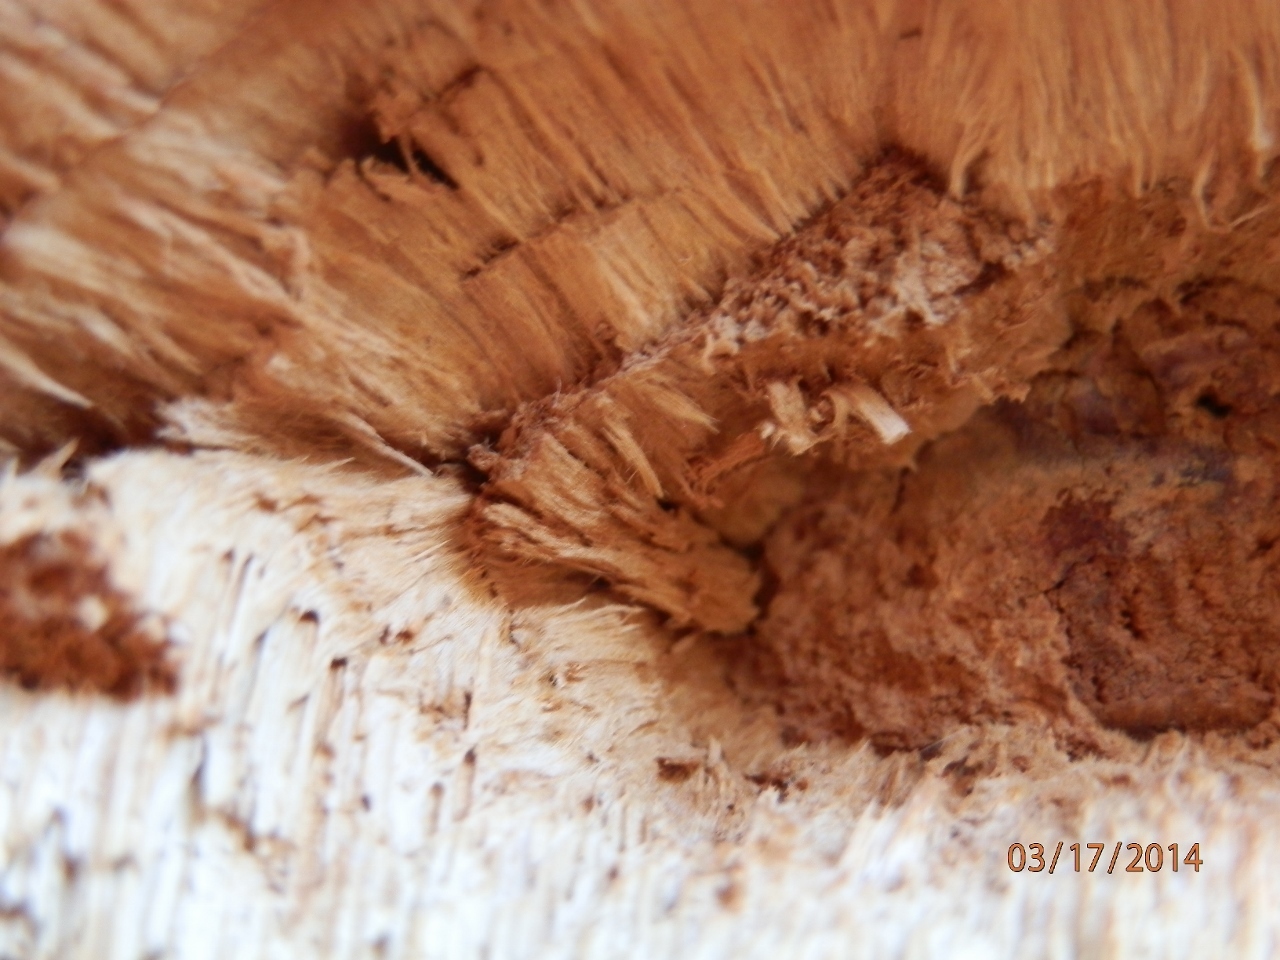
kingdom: Fungi
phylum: Basidiomycota
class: Agaricomycetes
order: Polyporales
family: Polyporaceae
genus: Pyrofomes
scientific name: Pyrofomes juniperinus
